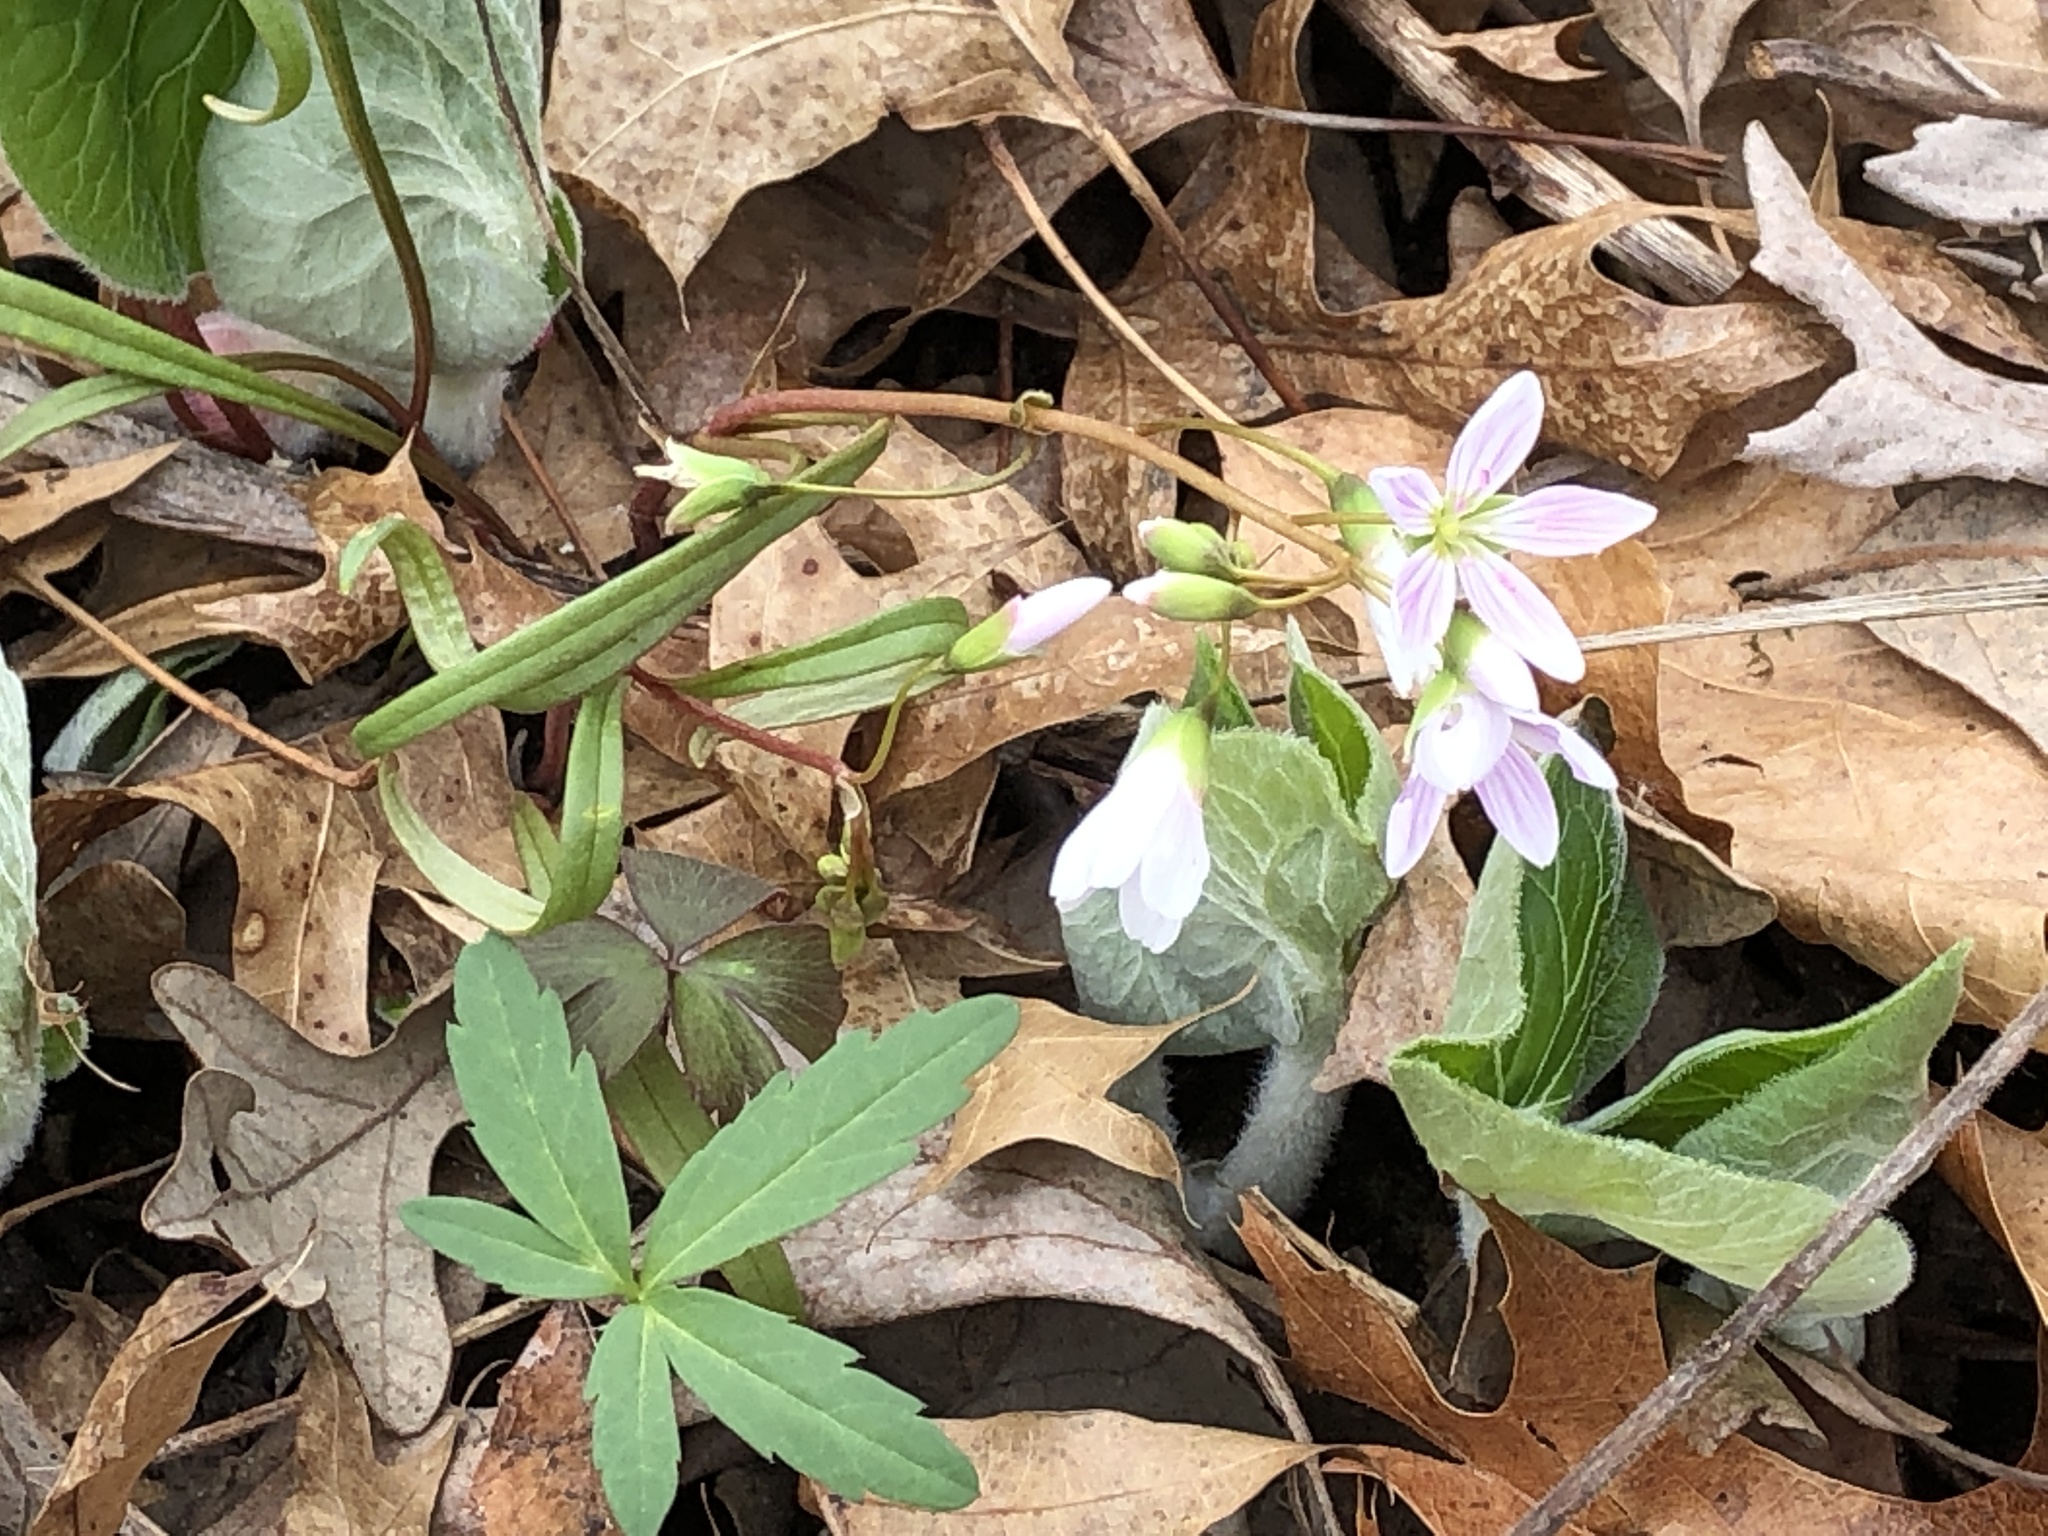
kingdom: Plantae
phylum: Tracheophyta
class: Magnoliopsida
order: Caryophyllales
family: Montiaceae
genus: Claytonia
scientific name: Claytonia virginica
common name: Virginia springbeauty
